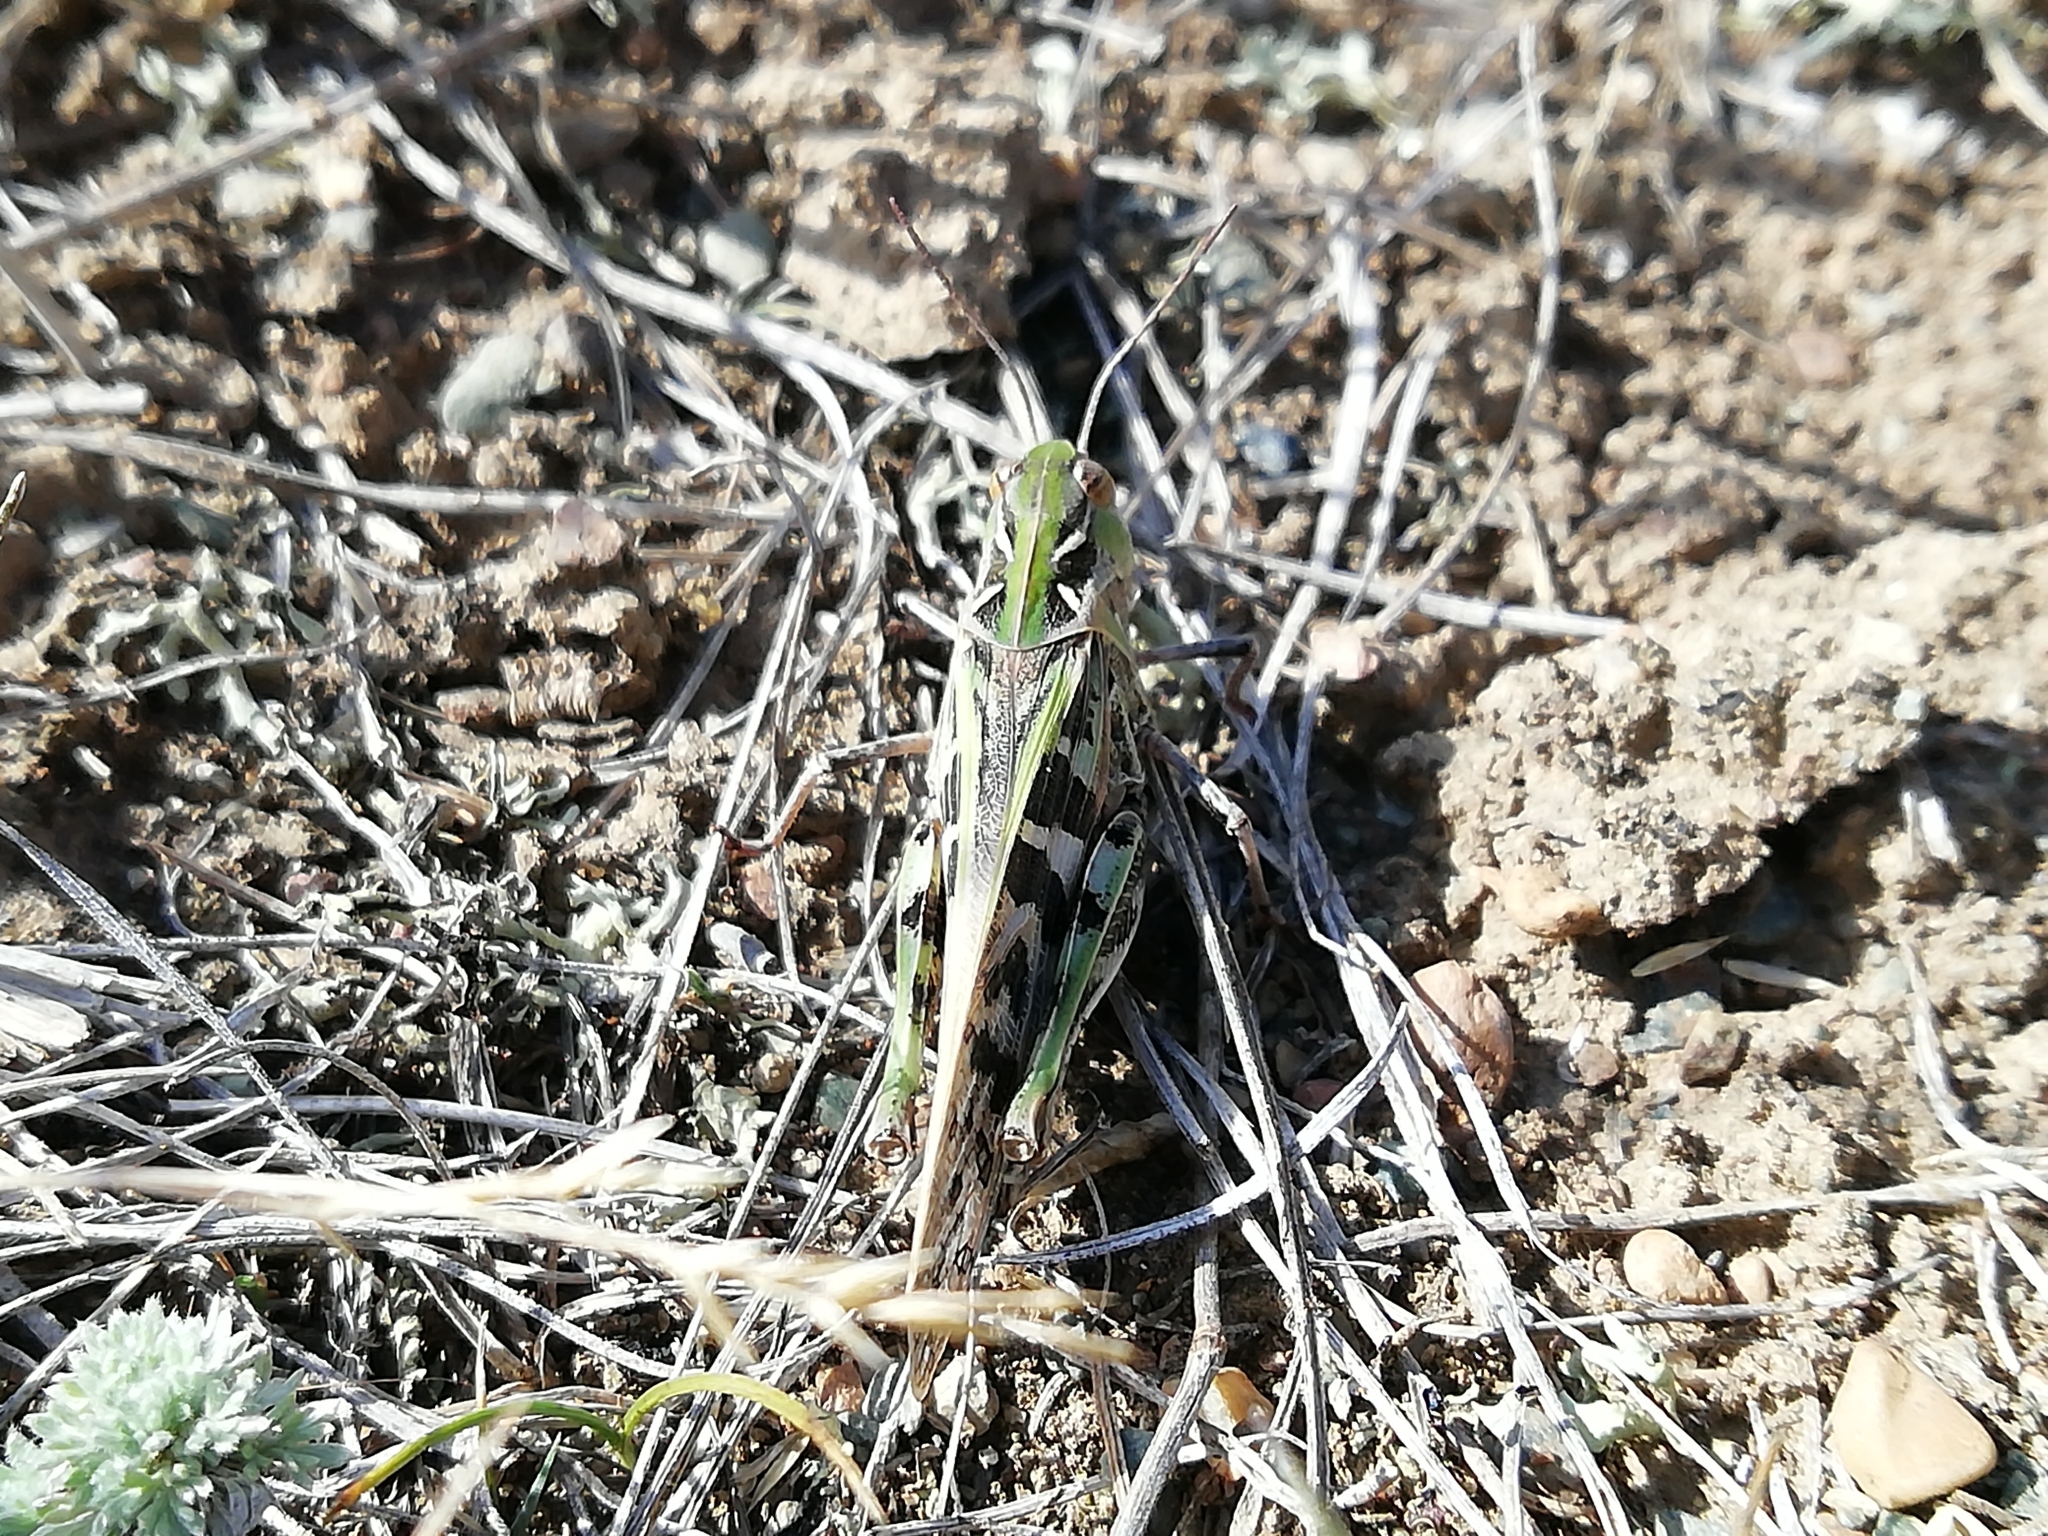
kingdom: Animalia
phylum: Arthropoda
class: Insecta
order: Orthoptera
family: Acrididae
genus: Oedaleus
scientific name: Oedaleus decorus
